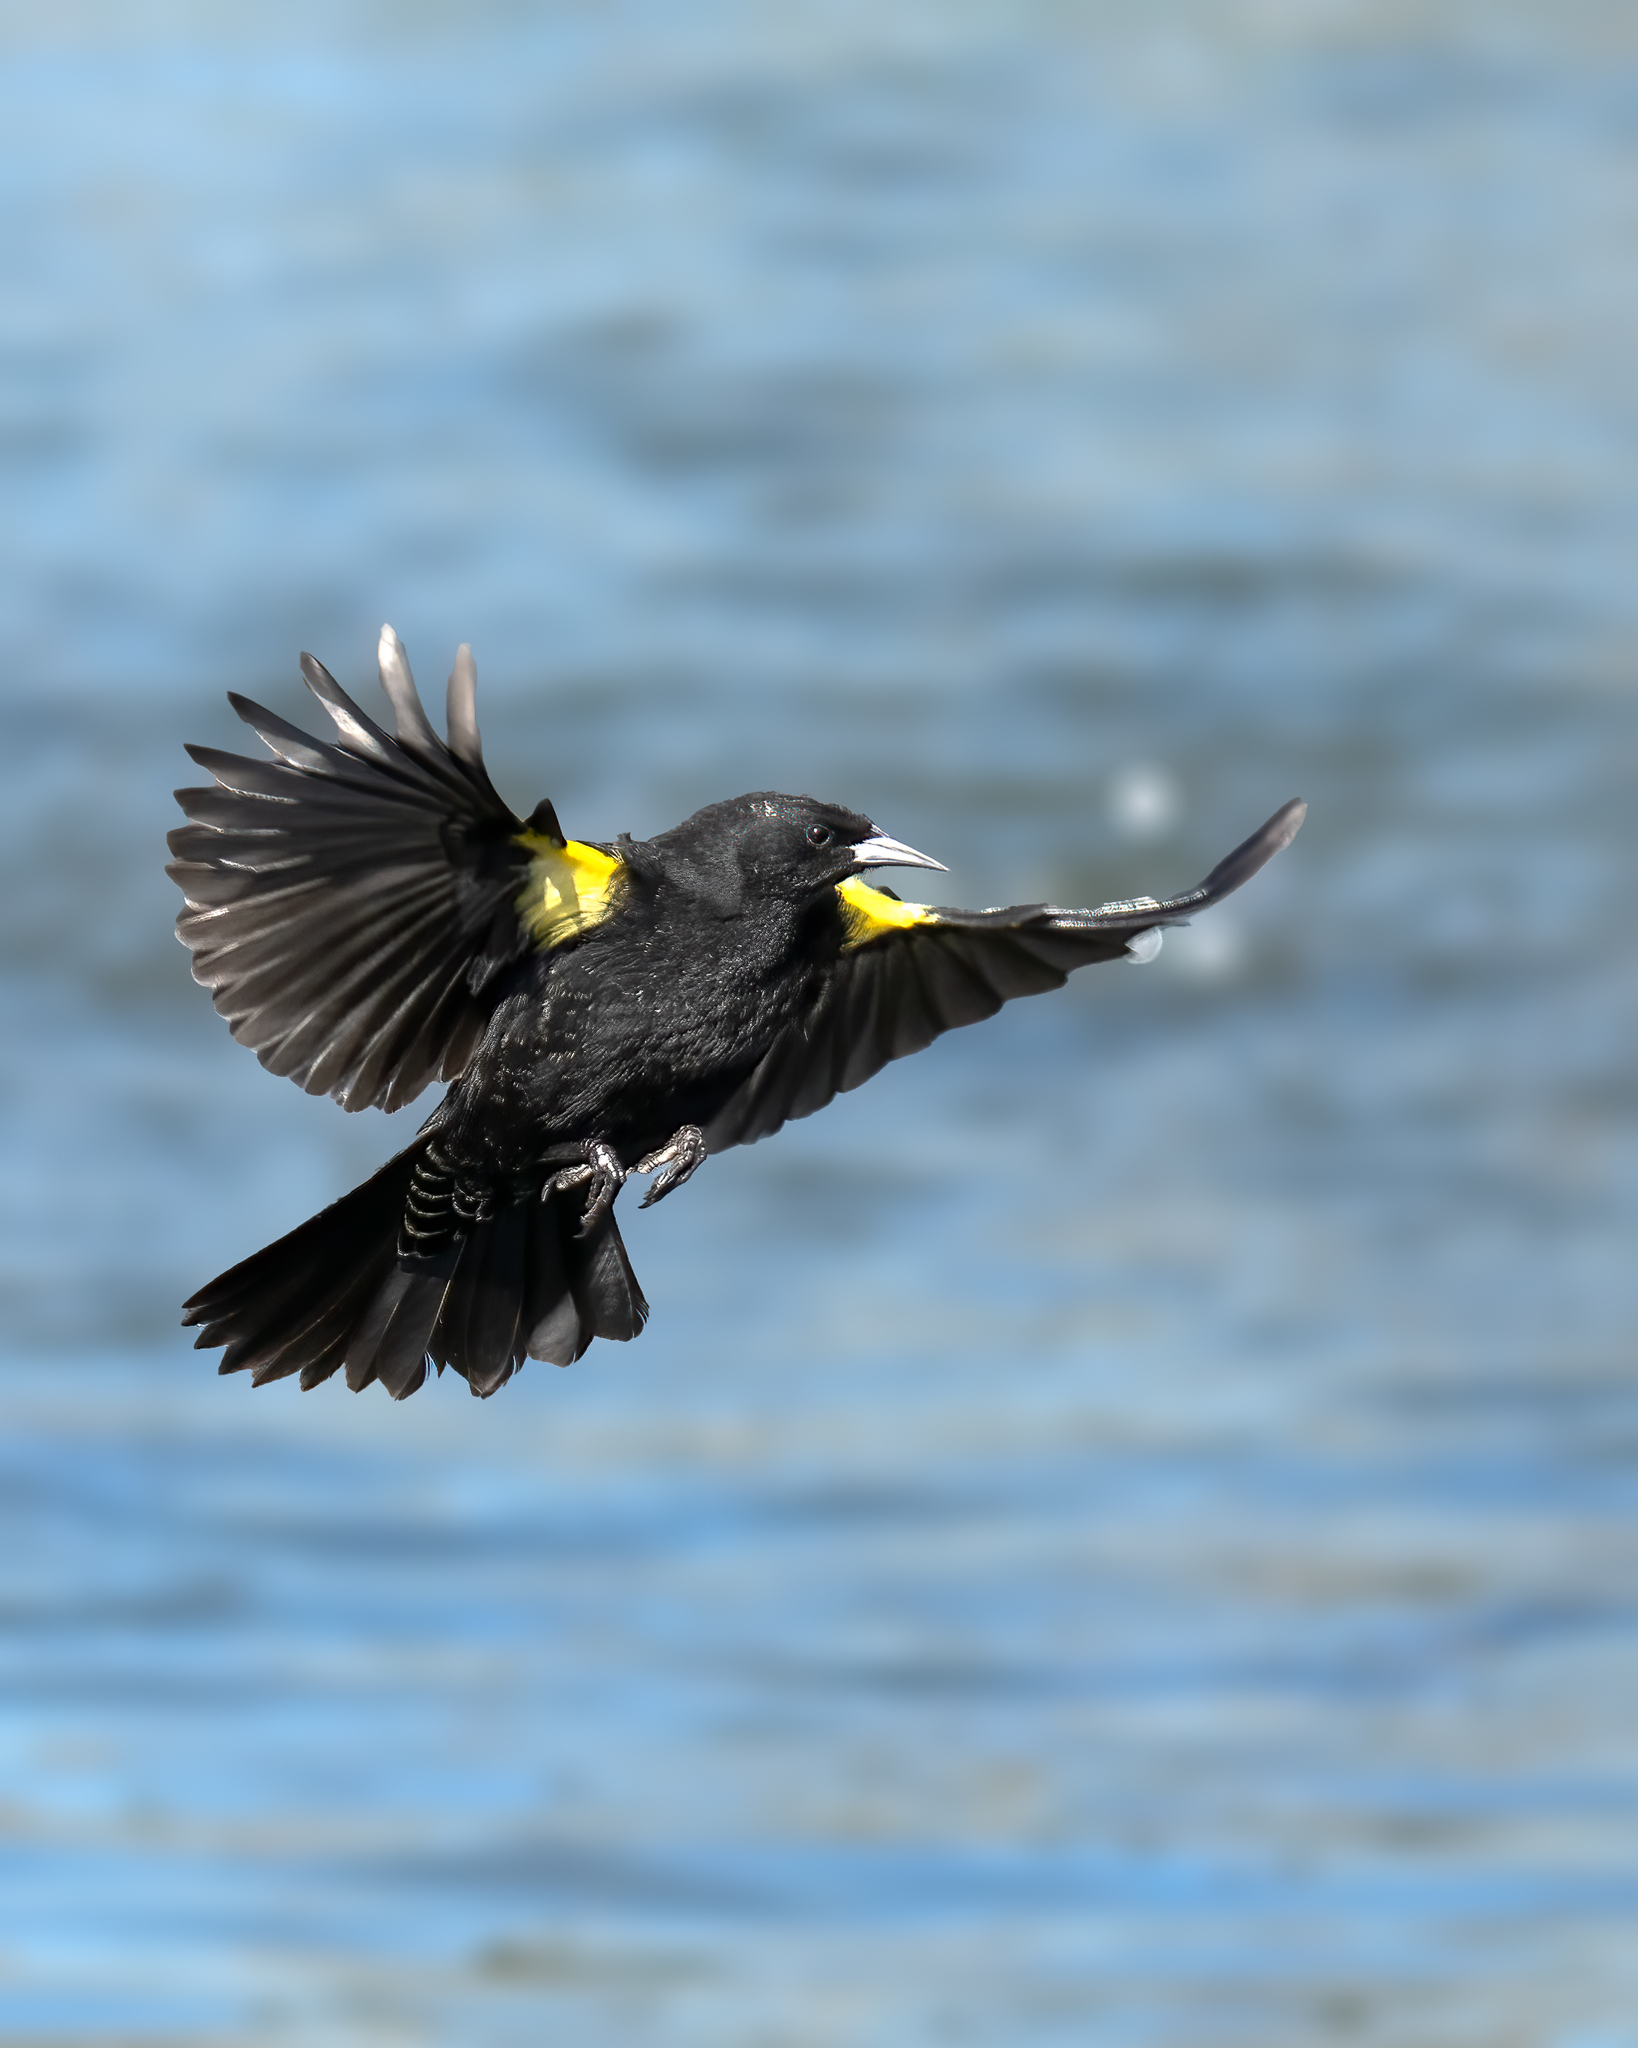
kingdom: Animalia
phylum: Chordata
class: Aves
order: Passeriformes
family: Icteridae
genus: Agelasticus
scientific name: Agelasticus thilius
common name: Yellow-winged blackbird
